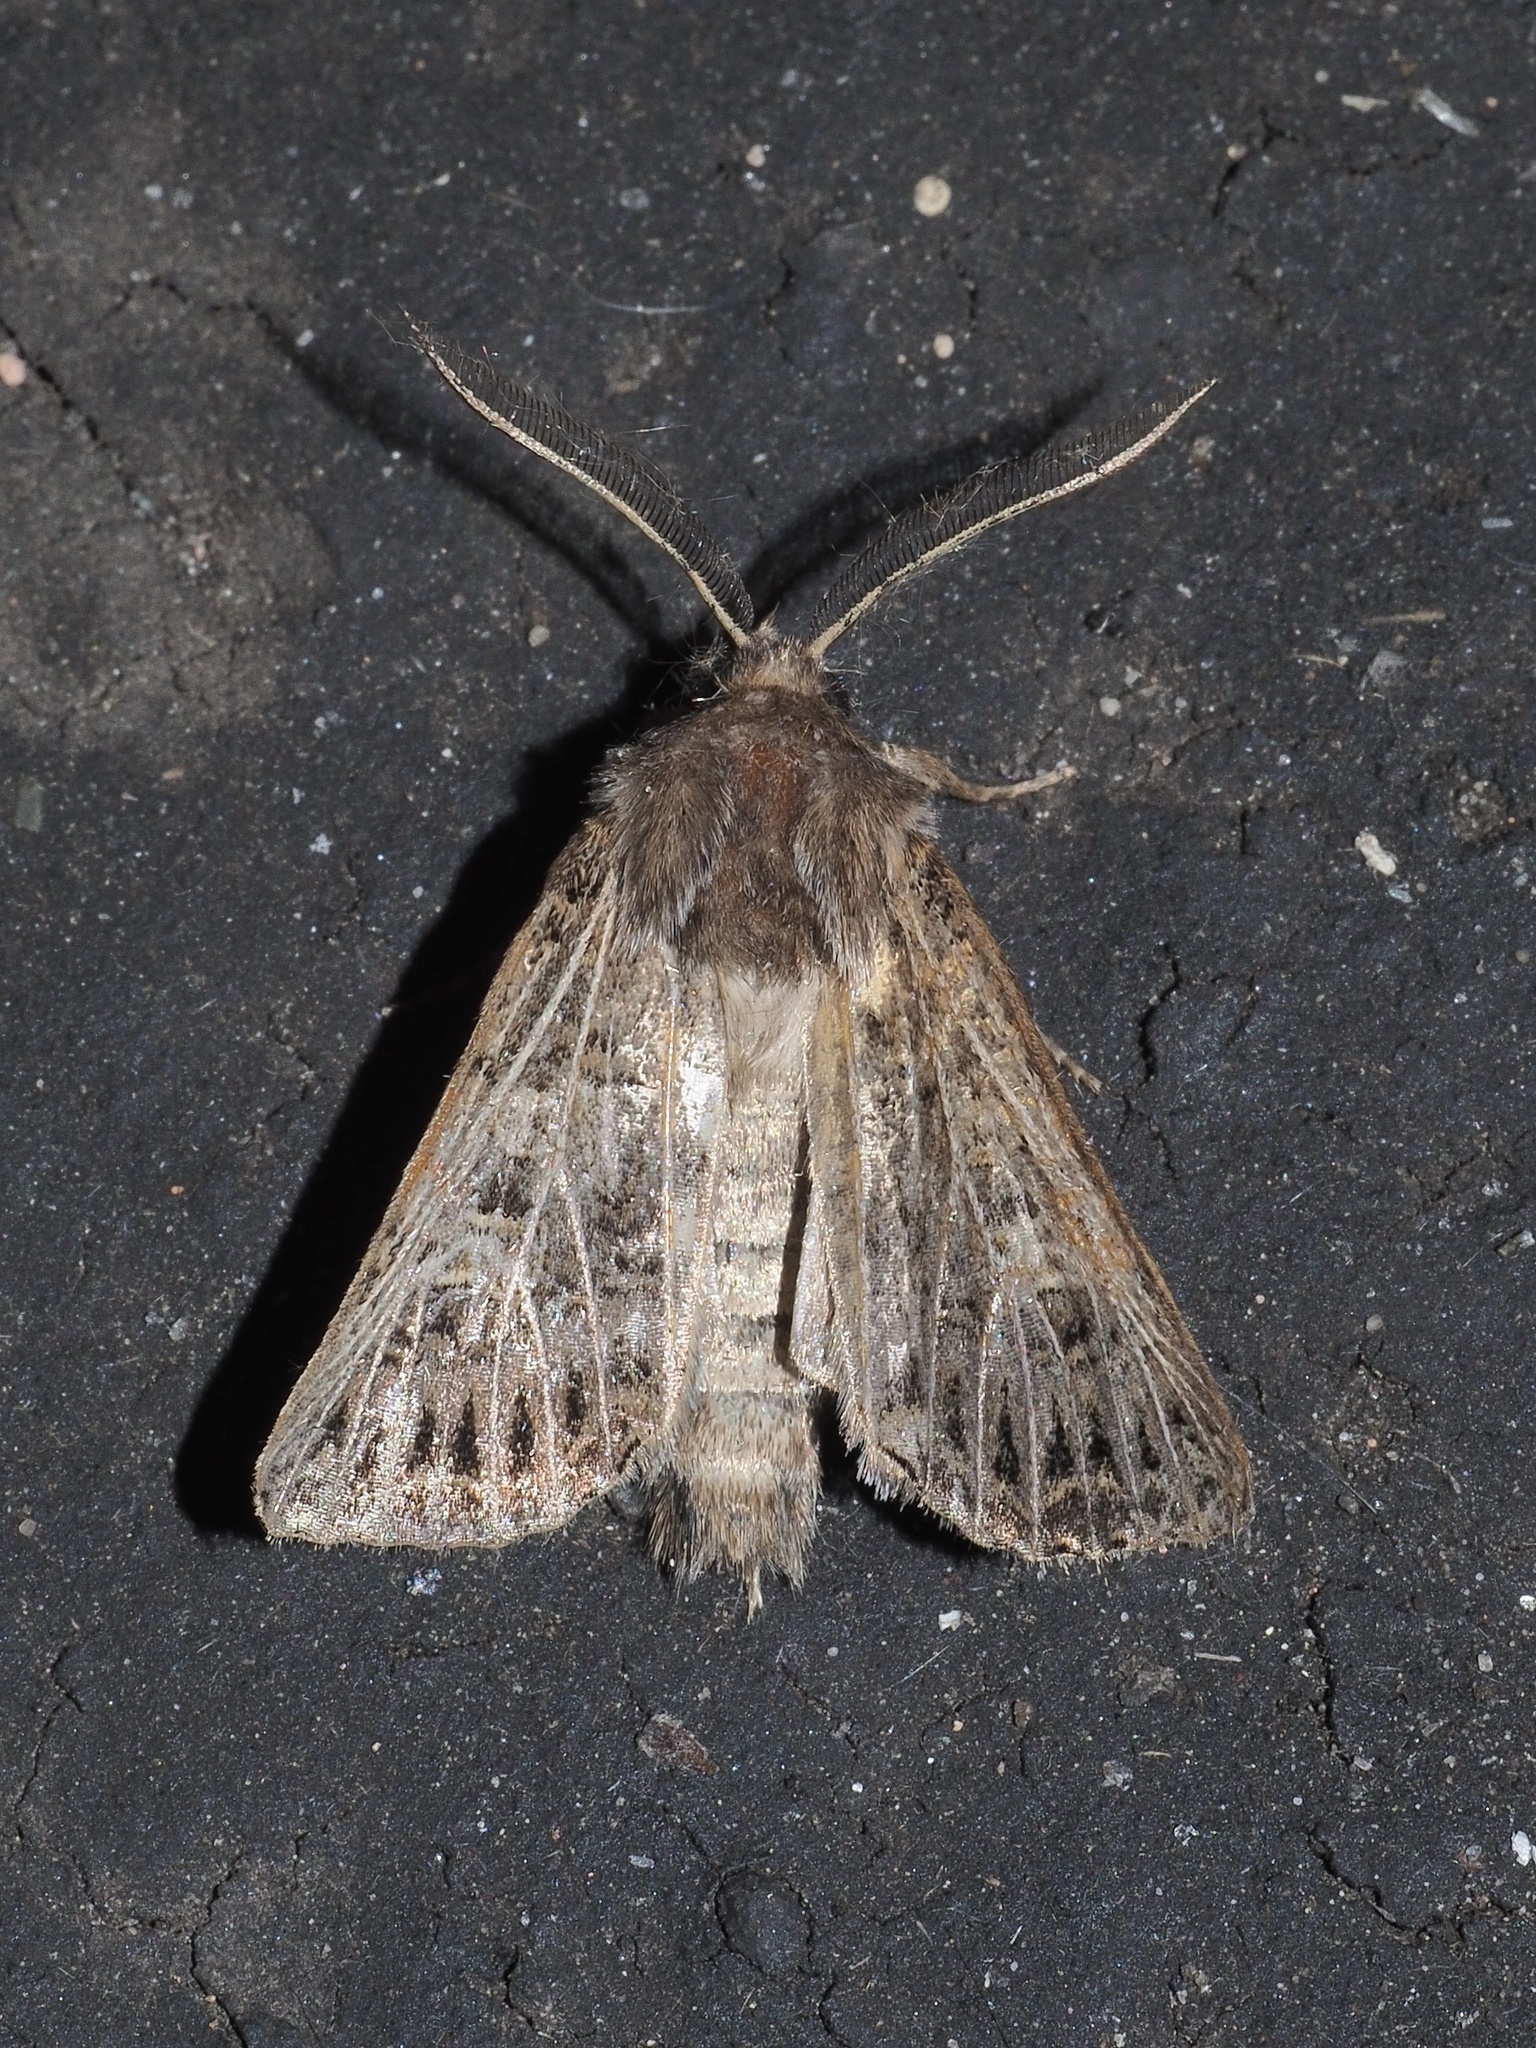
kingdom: Animalia
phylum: Arthropoda
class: Insecta
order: Lepidoptera
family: Noctuidae
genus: Tholera
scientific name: Tholera decimalis
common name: Feathered gothic
